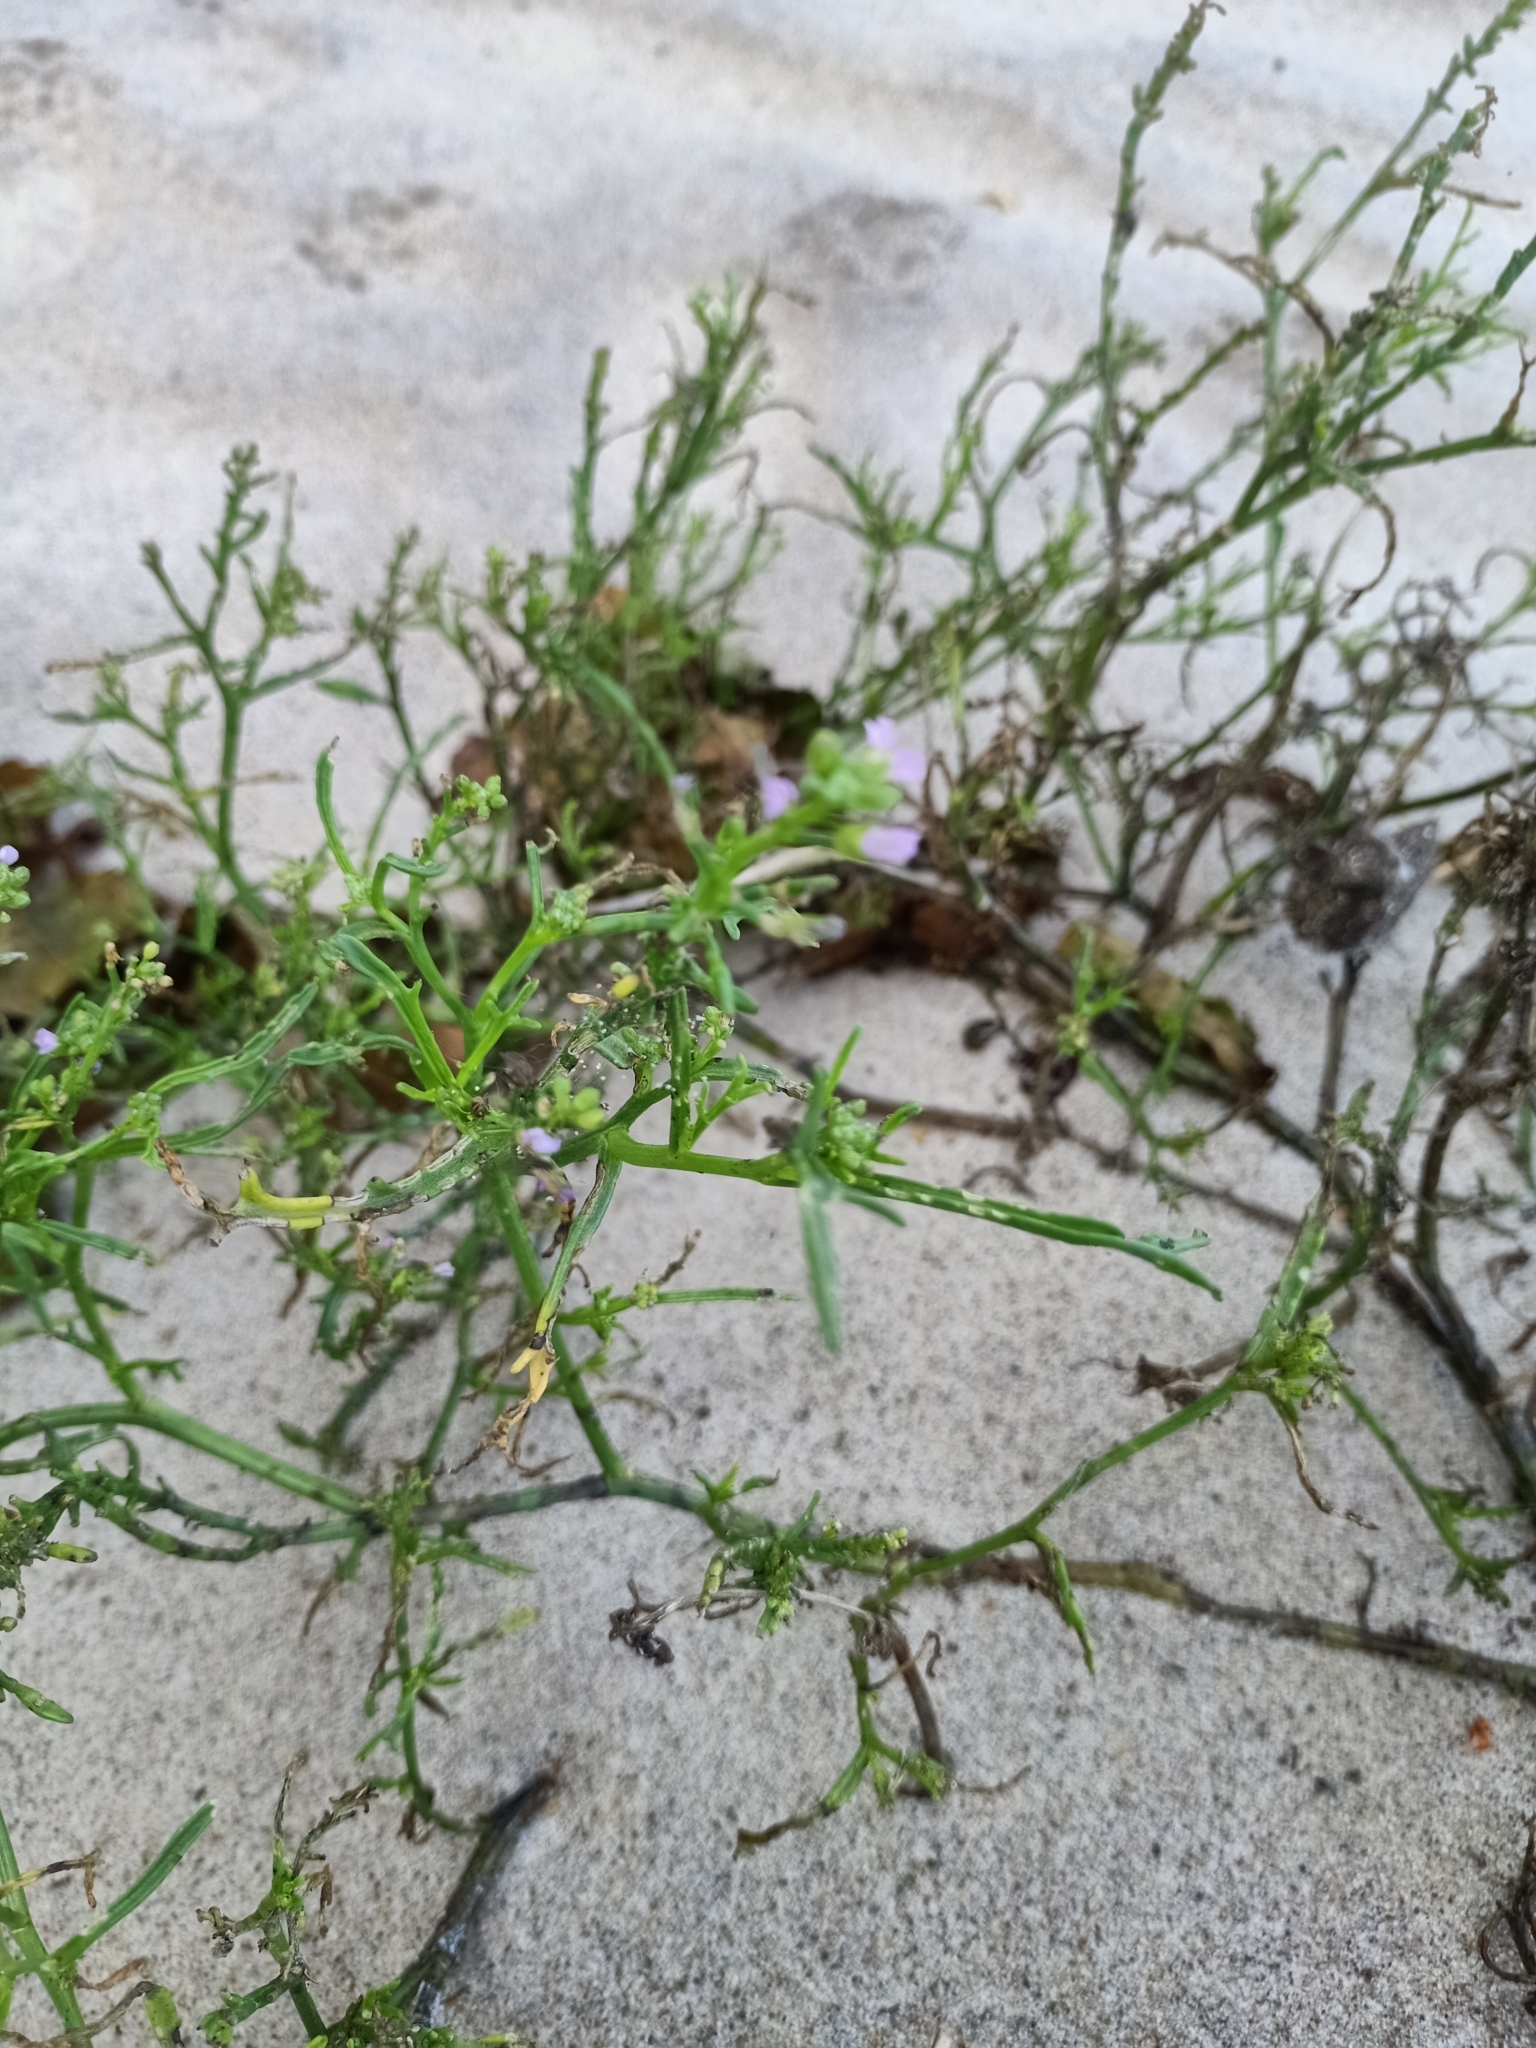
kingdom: Plantae
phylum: Tracheophyta
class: Magnoliopsida
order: Brassicales
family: Brassicaceae
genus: Cakile
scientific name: Cakile maritima
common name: Sea rocket
